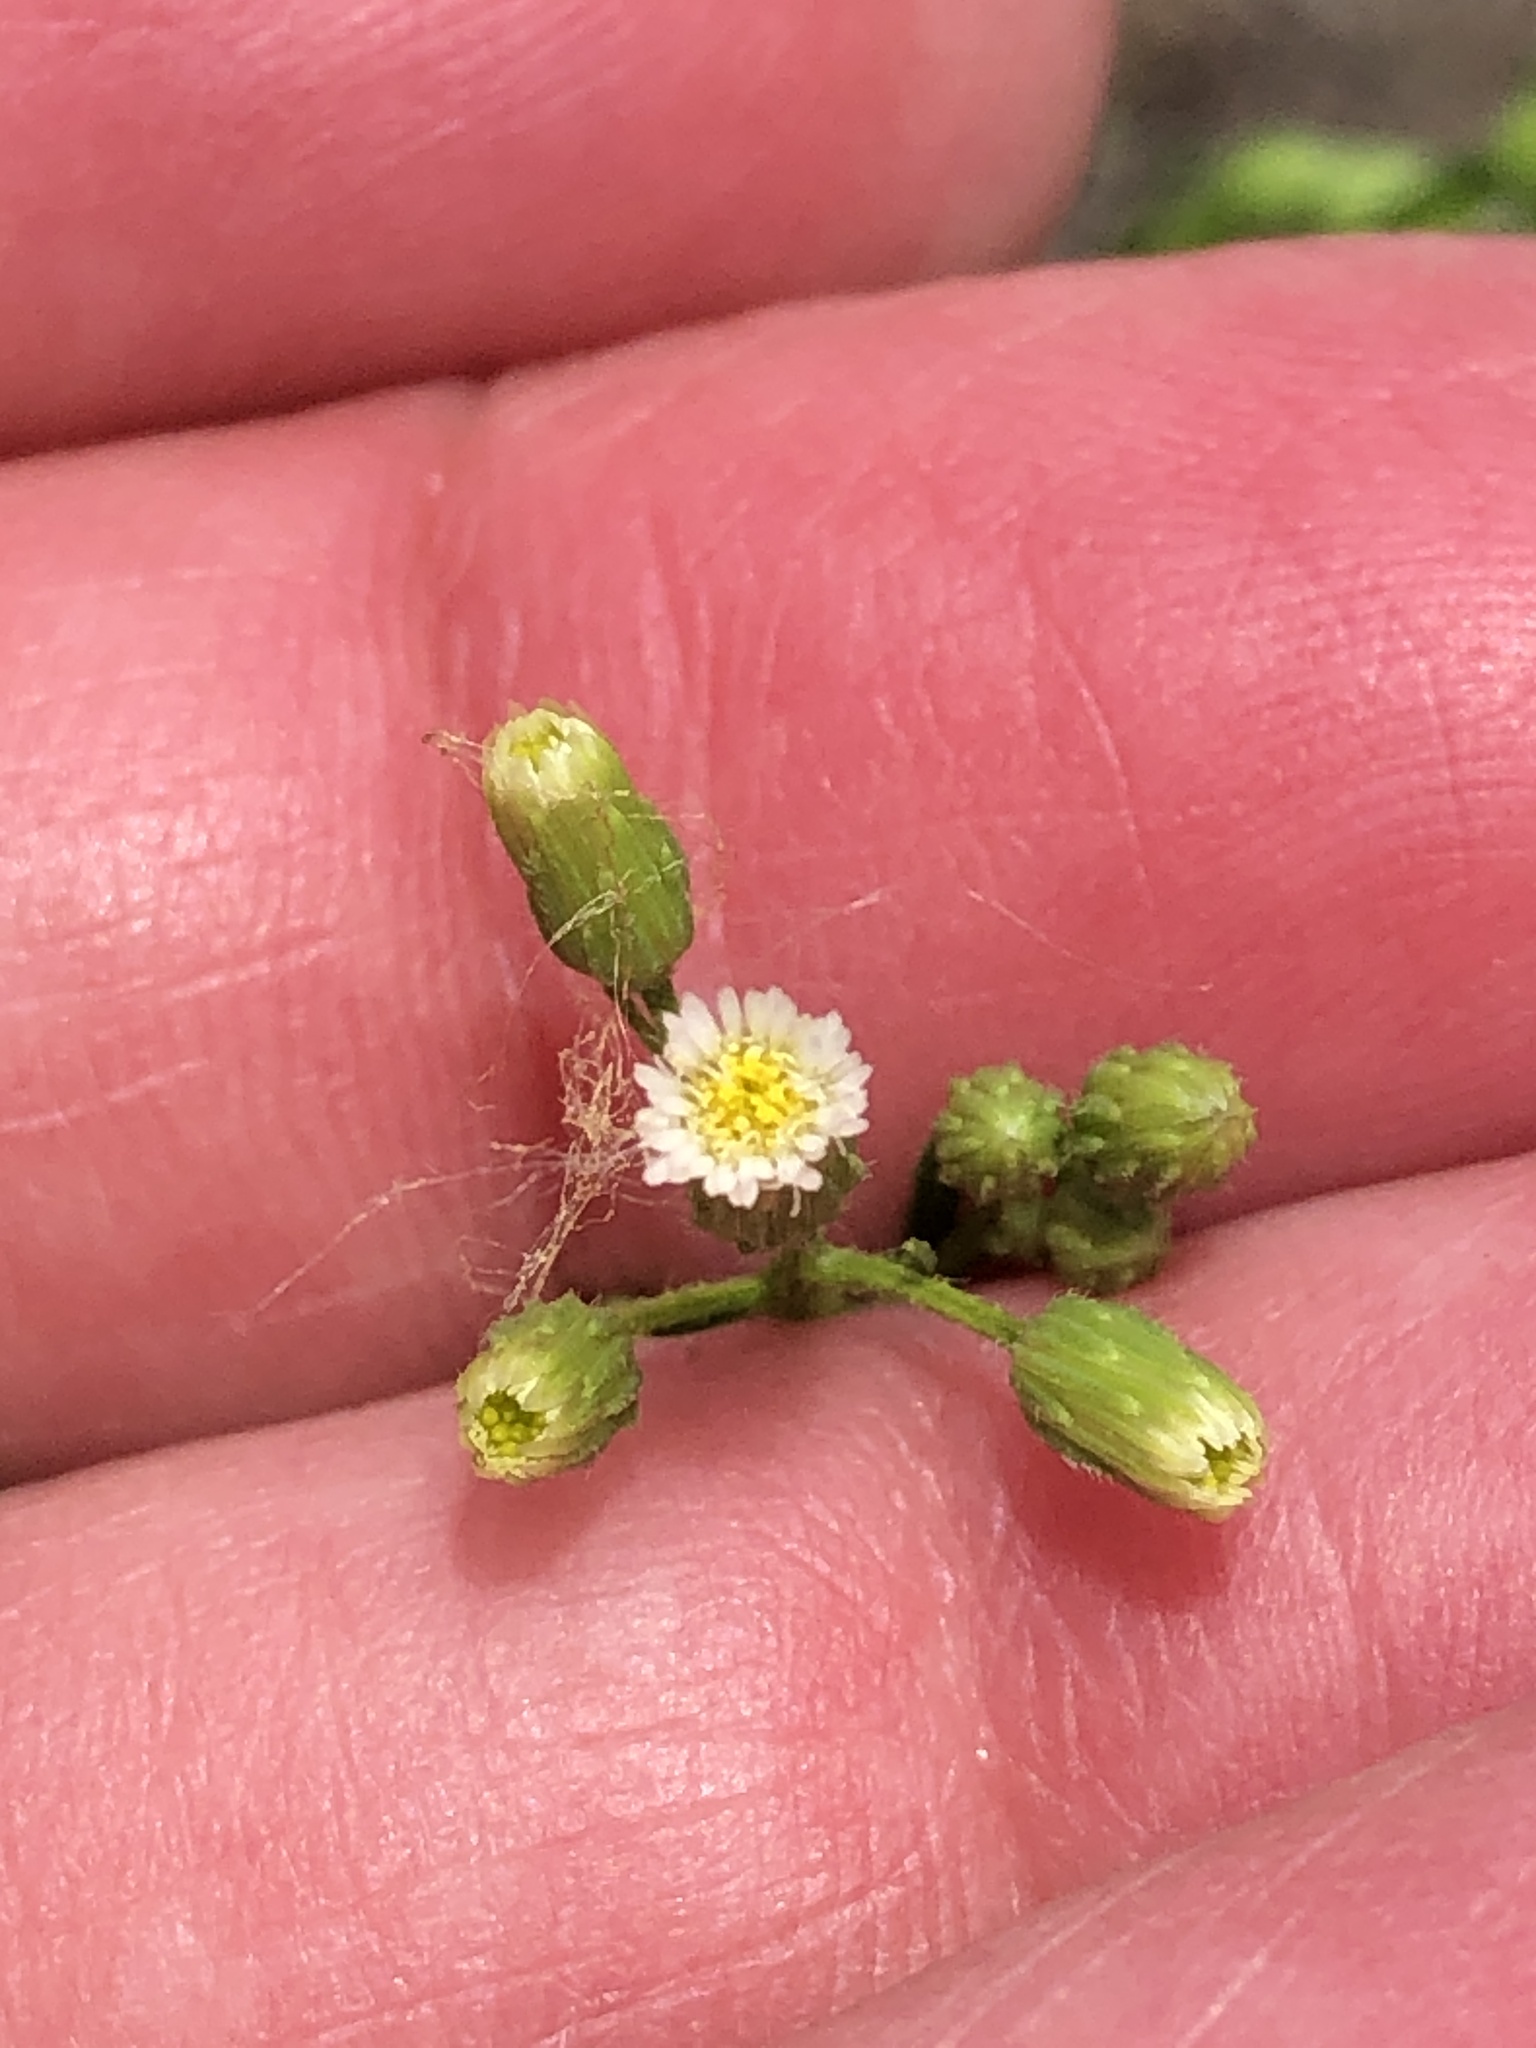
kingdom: Plantae
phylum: Tracheophyta
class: Magnoliopsida
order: Asterales
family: Asteraceae
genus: Erigeron
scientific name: Erigeron canadensis
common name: Canadian fleabane
